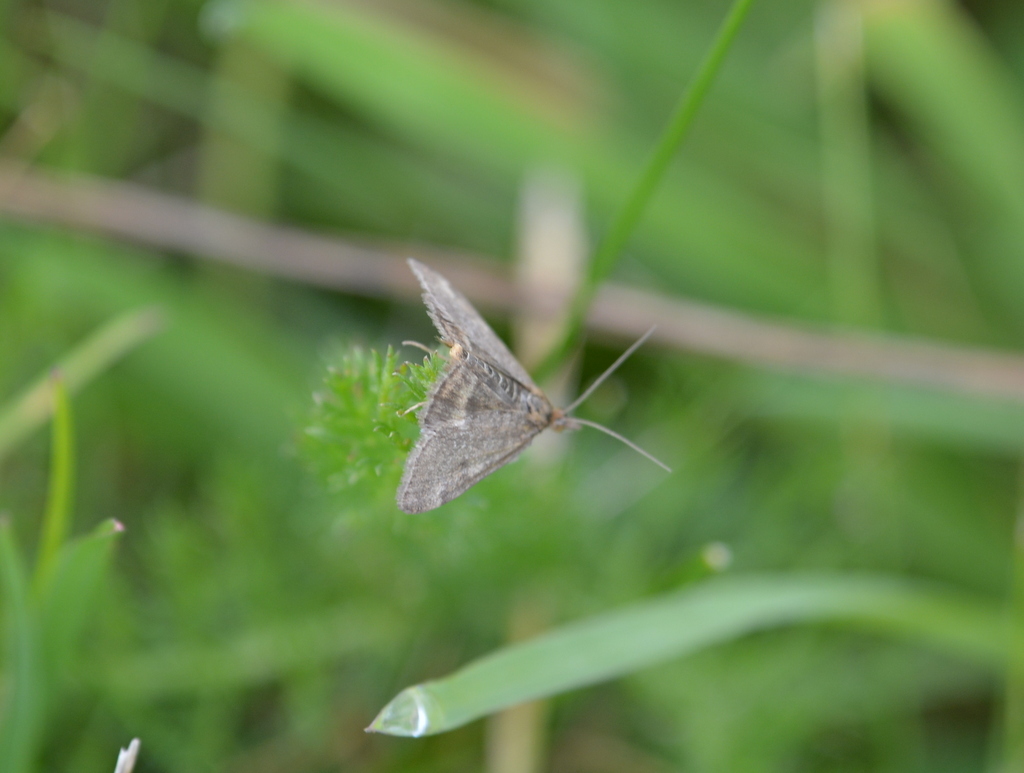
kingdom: Animalia
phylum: Arthropoda
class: Insecta
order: Lepidoptera
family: Crambidae
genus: Pyrausta
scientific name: Pyrausta despicata
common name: Straw-barred pearl
